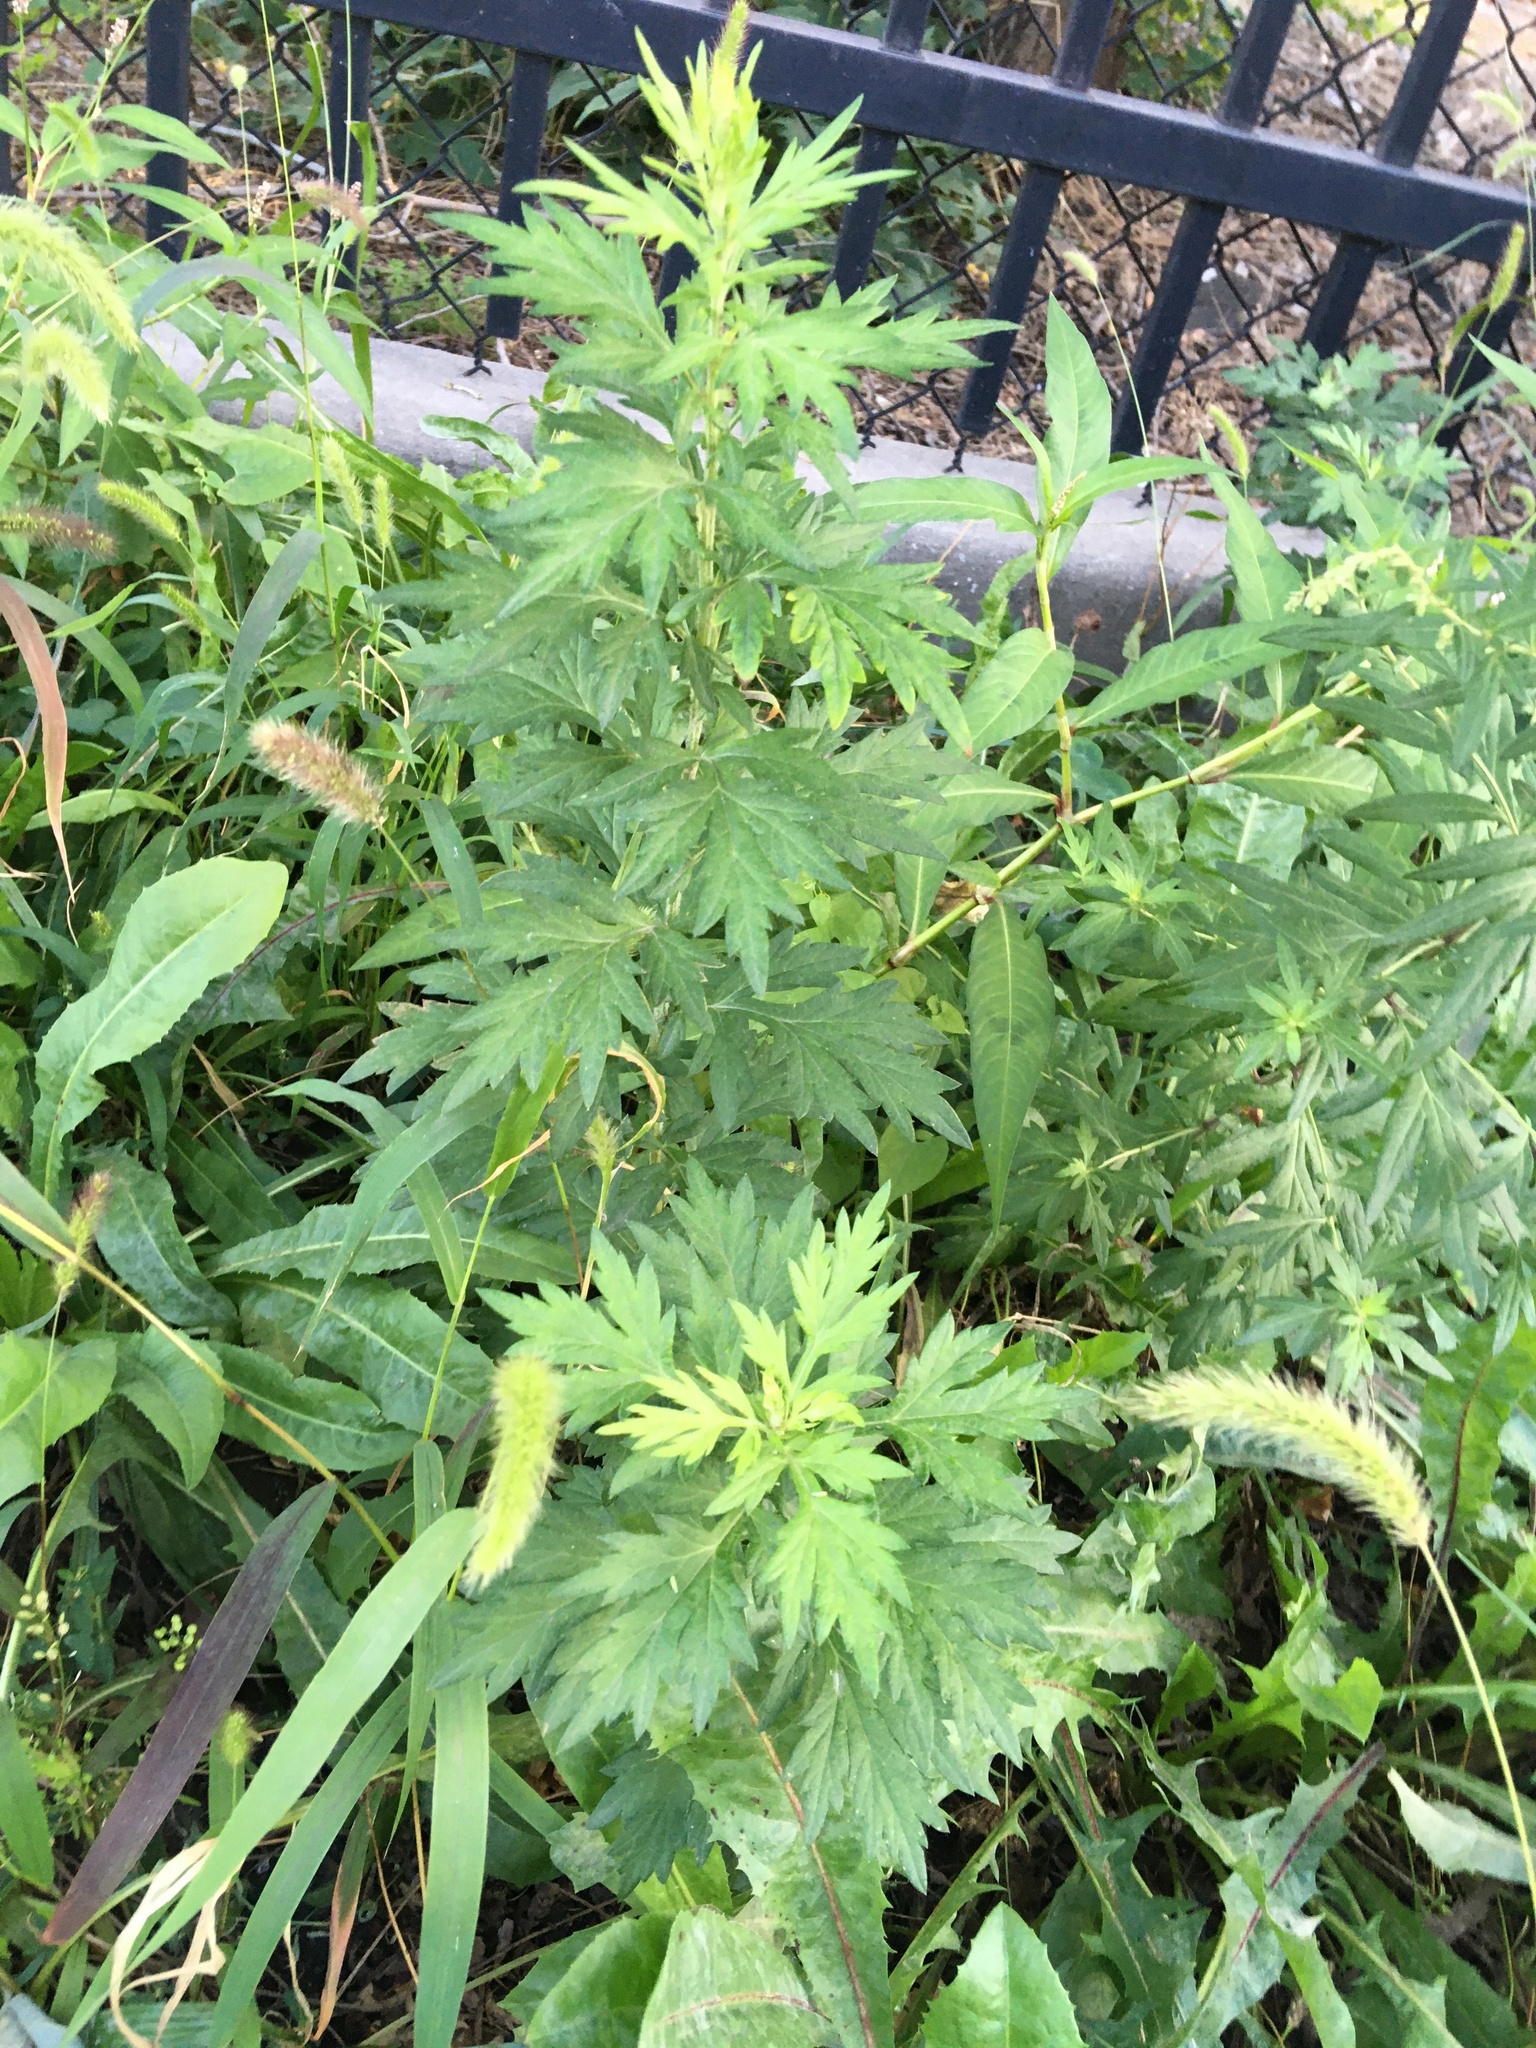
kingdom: Plantae
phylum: Tracheophyta
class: Magnoliopsida
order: Asterales
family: Asteraceae
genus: Artemisia
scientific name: Artemisia vulgaris
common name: Mugwort
